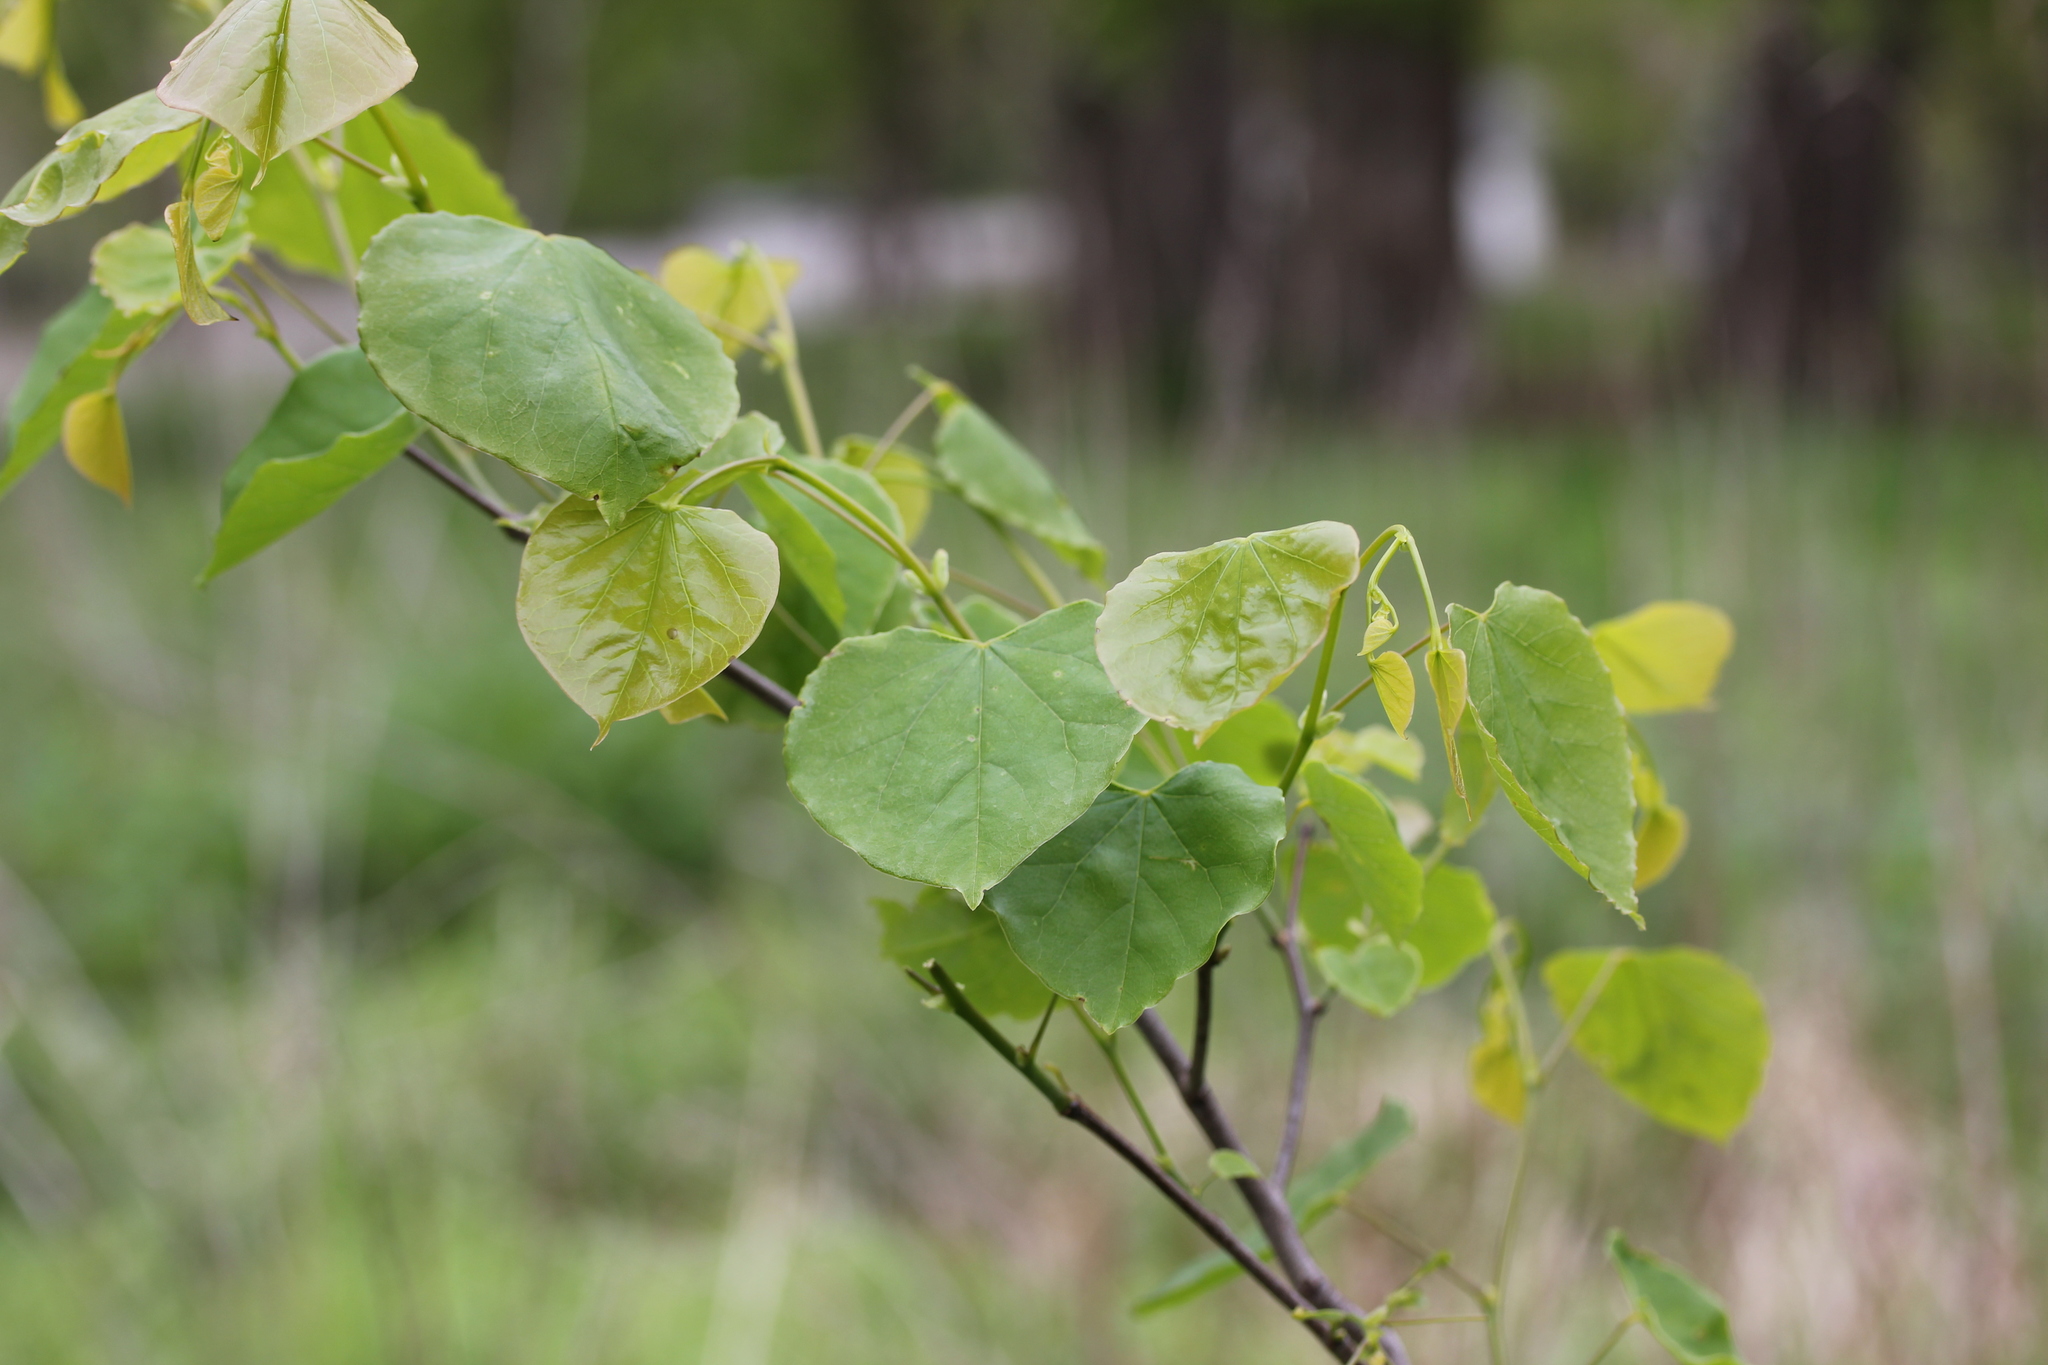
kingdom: Plantae
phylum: Tracheophyta
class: Magnoliopsida
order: Fabales
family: Fabaceae
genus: Cercis
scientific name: Cercis canadensis
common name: Eastern redbud
